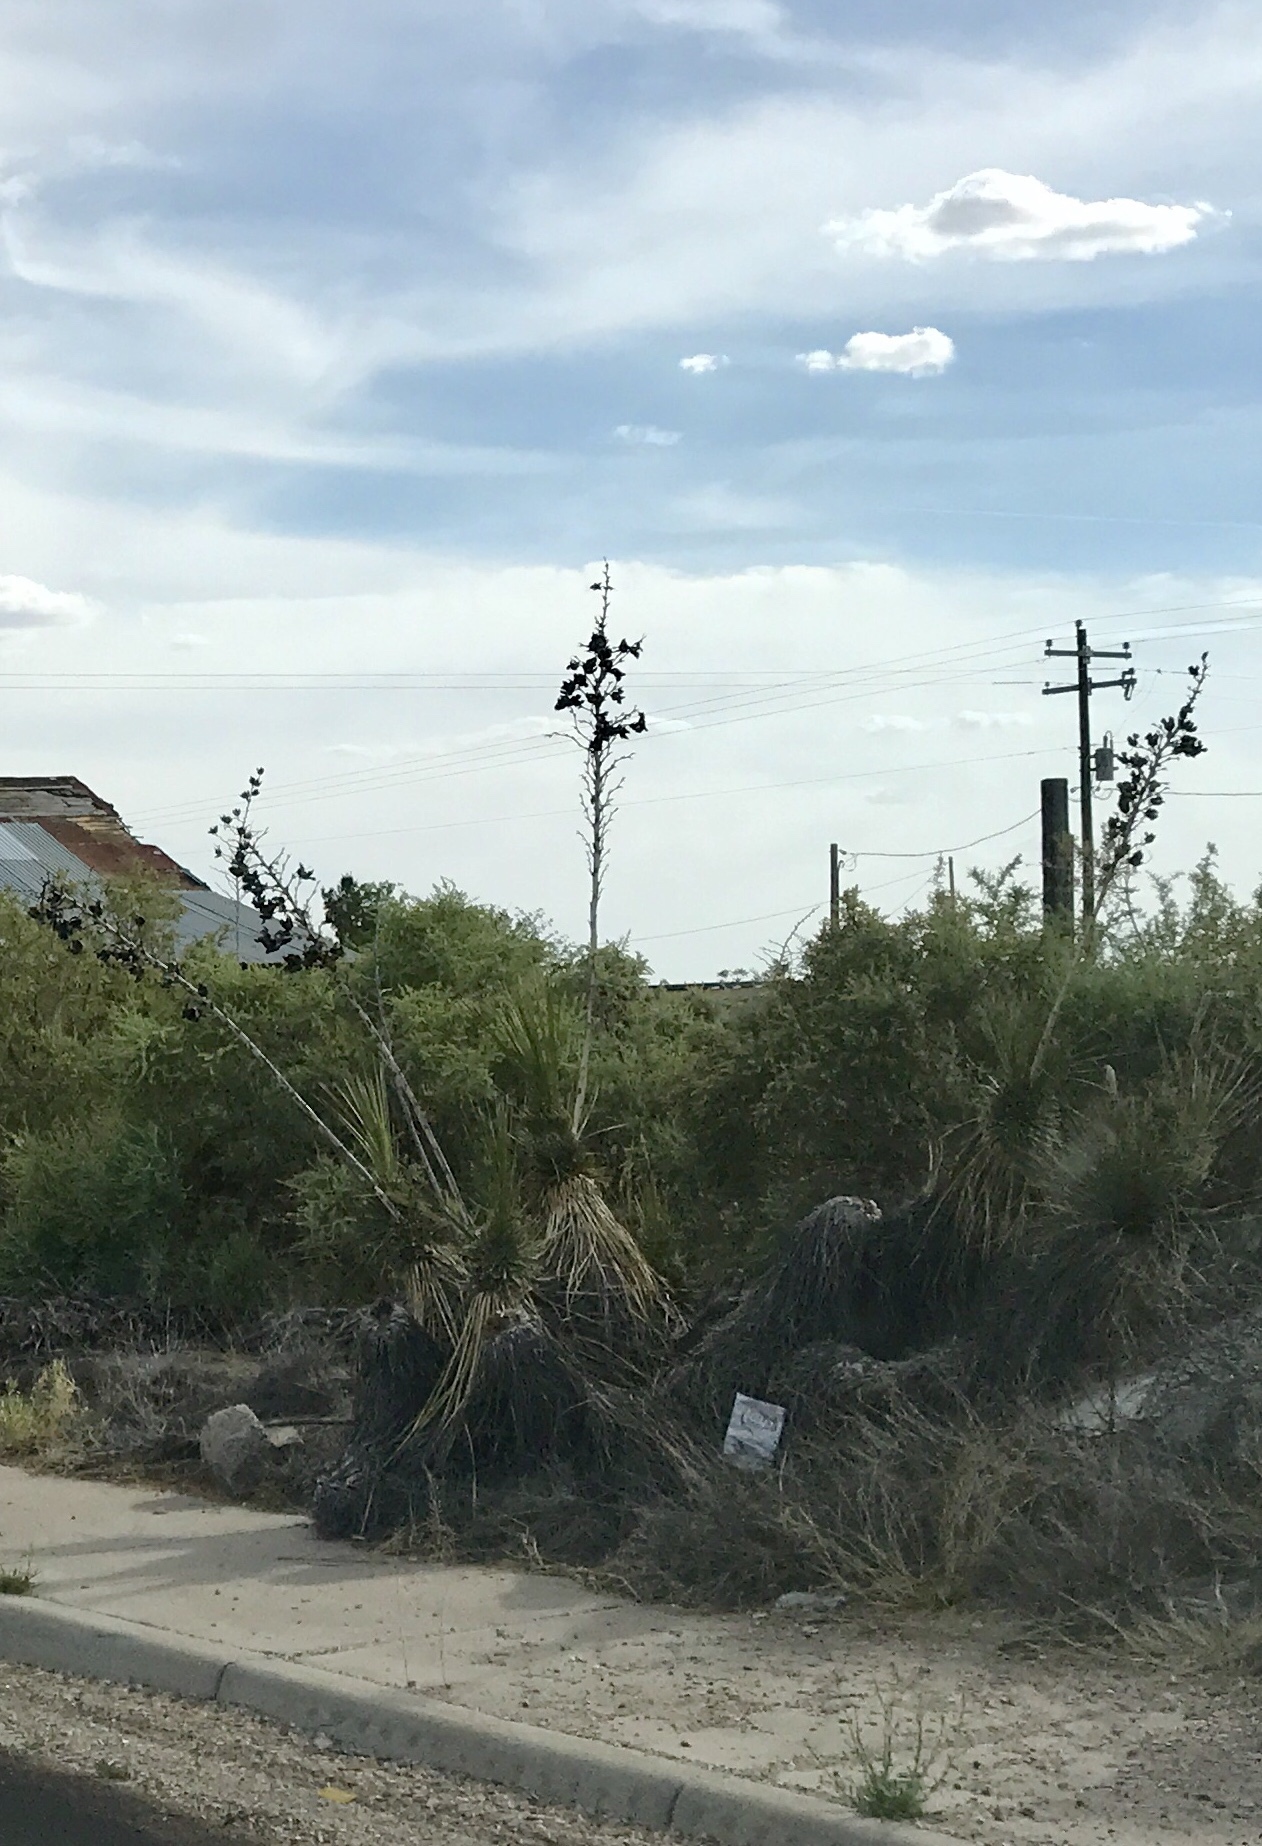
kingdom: Plantae
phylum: Tracheophyta
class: Liliopsida
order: Asparagales
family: Asparagaceae
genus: Yucca
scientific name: Yucca elata
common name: Palmella
